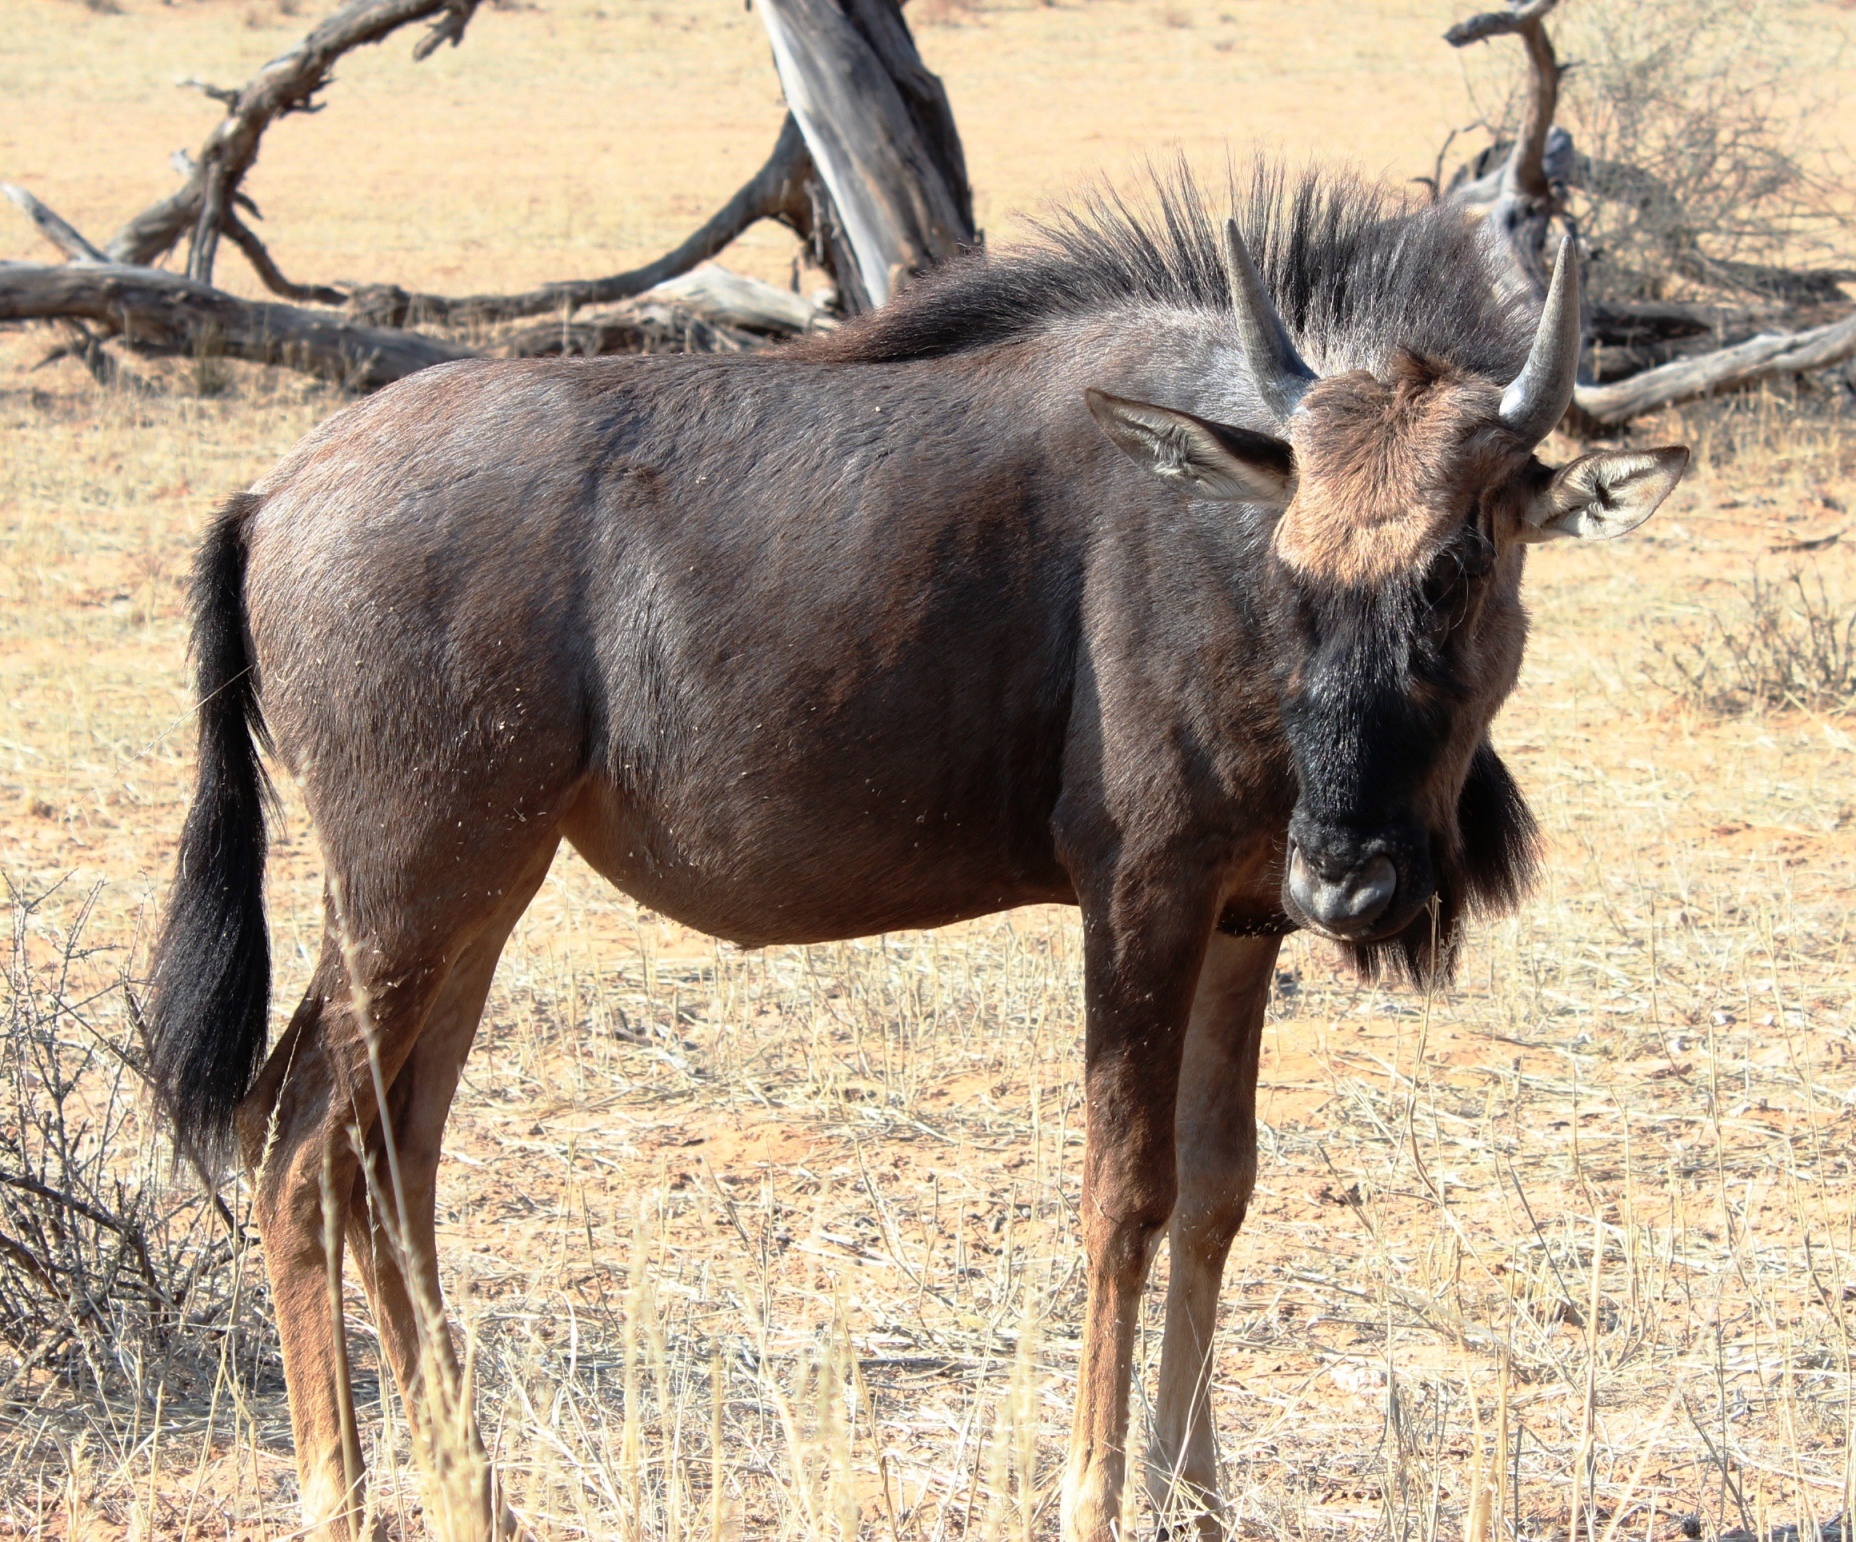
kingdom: Animalia
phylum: Chordata
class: Mammalia
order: Artiodactyla
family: Bovidae
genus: Connochaetes
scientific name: Connochaetes taurinus
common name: Blue wildebeest
